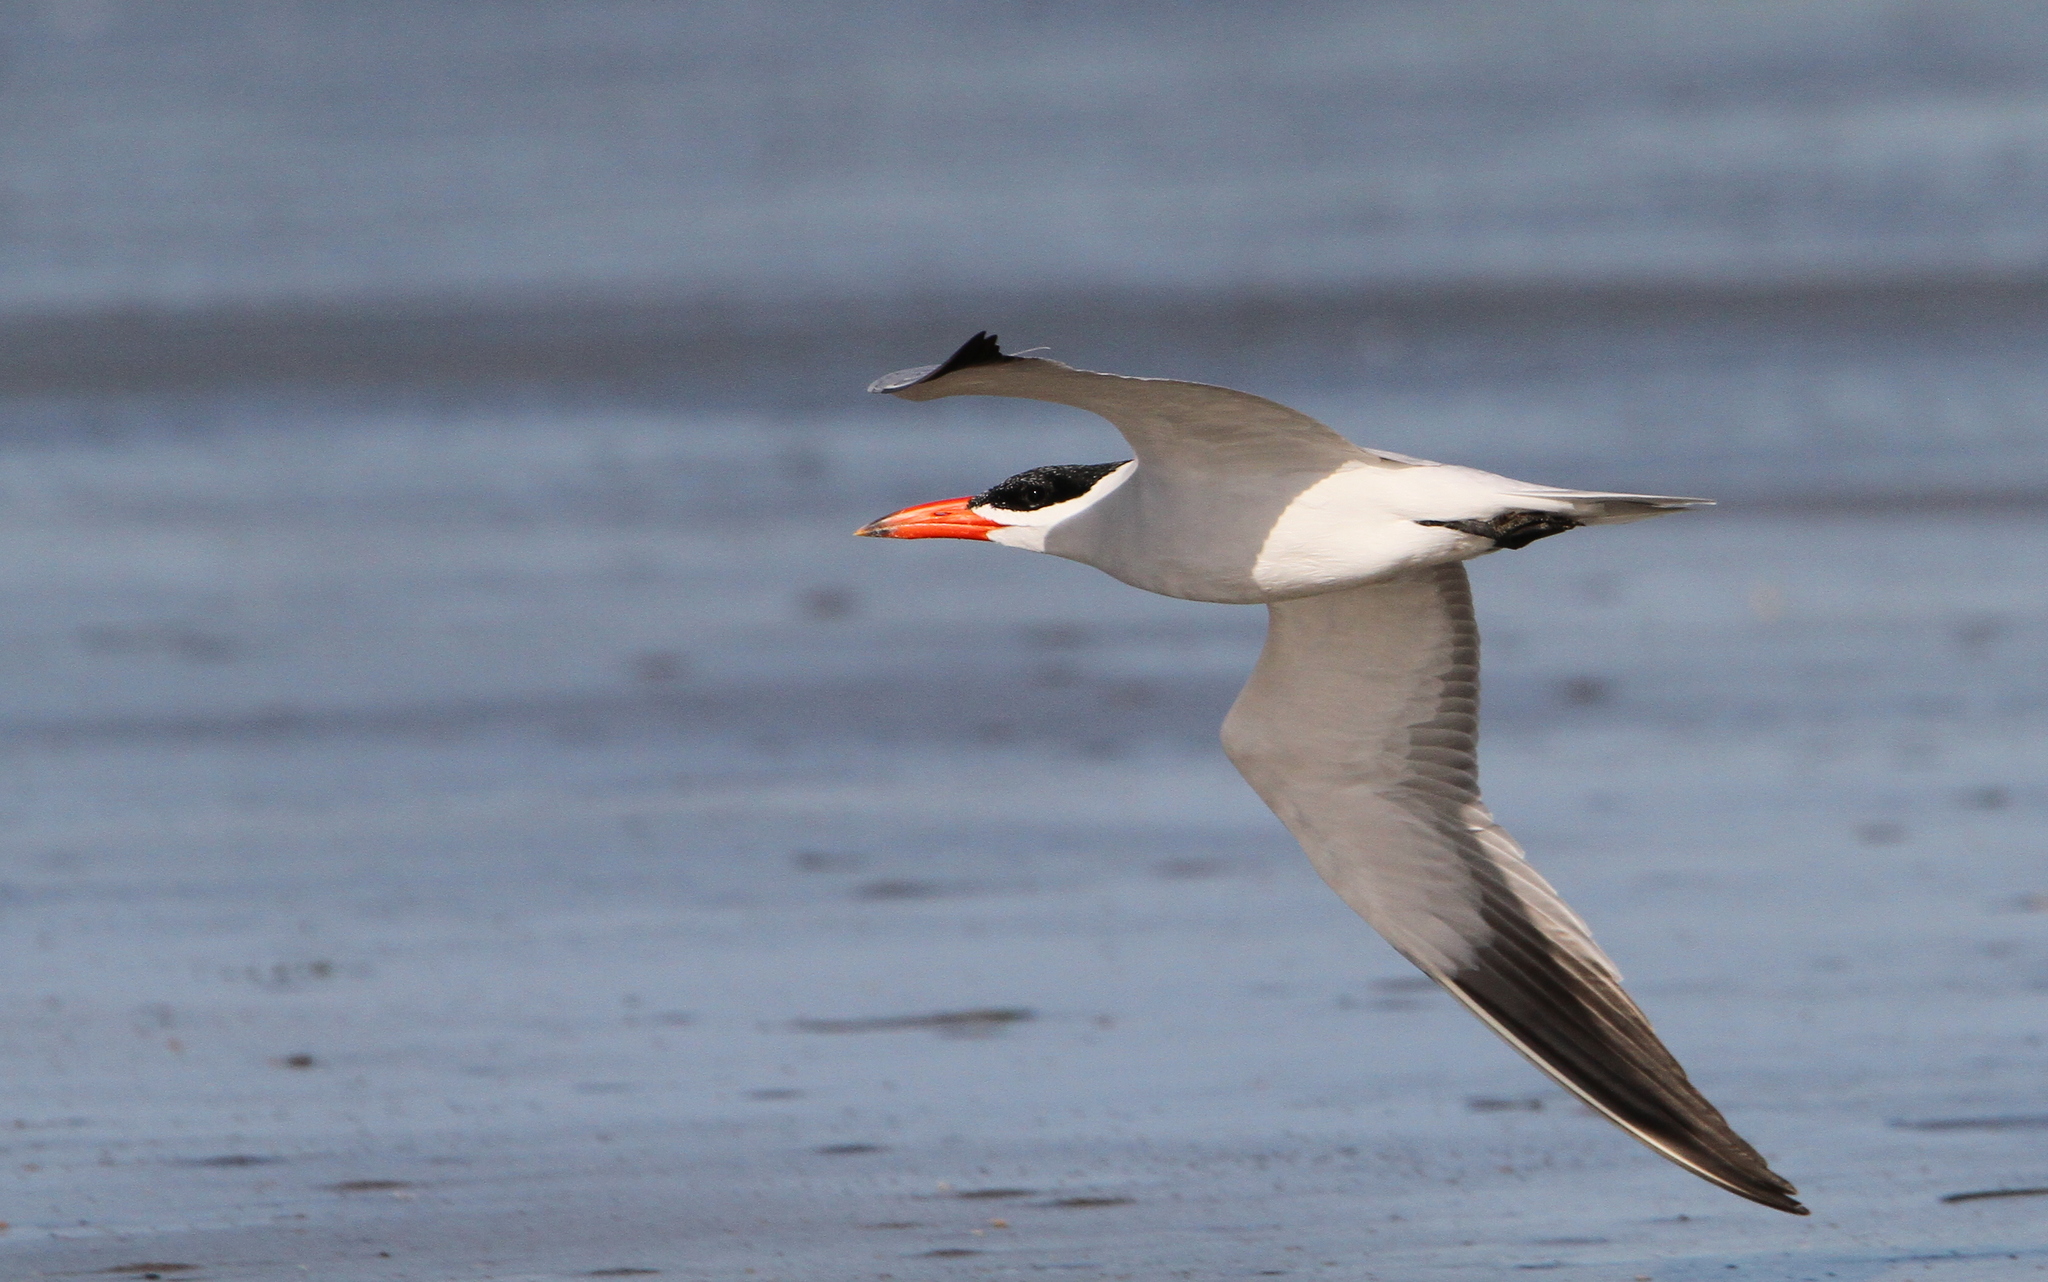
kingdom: Animalia
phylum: Chordata
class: Aves
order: Charadriiformes
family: Laridae
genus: Hydroprogne
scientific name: Hydroprogne caspia
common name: Caspian tern
